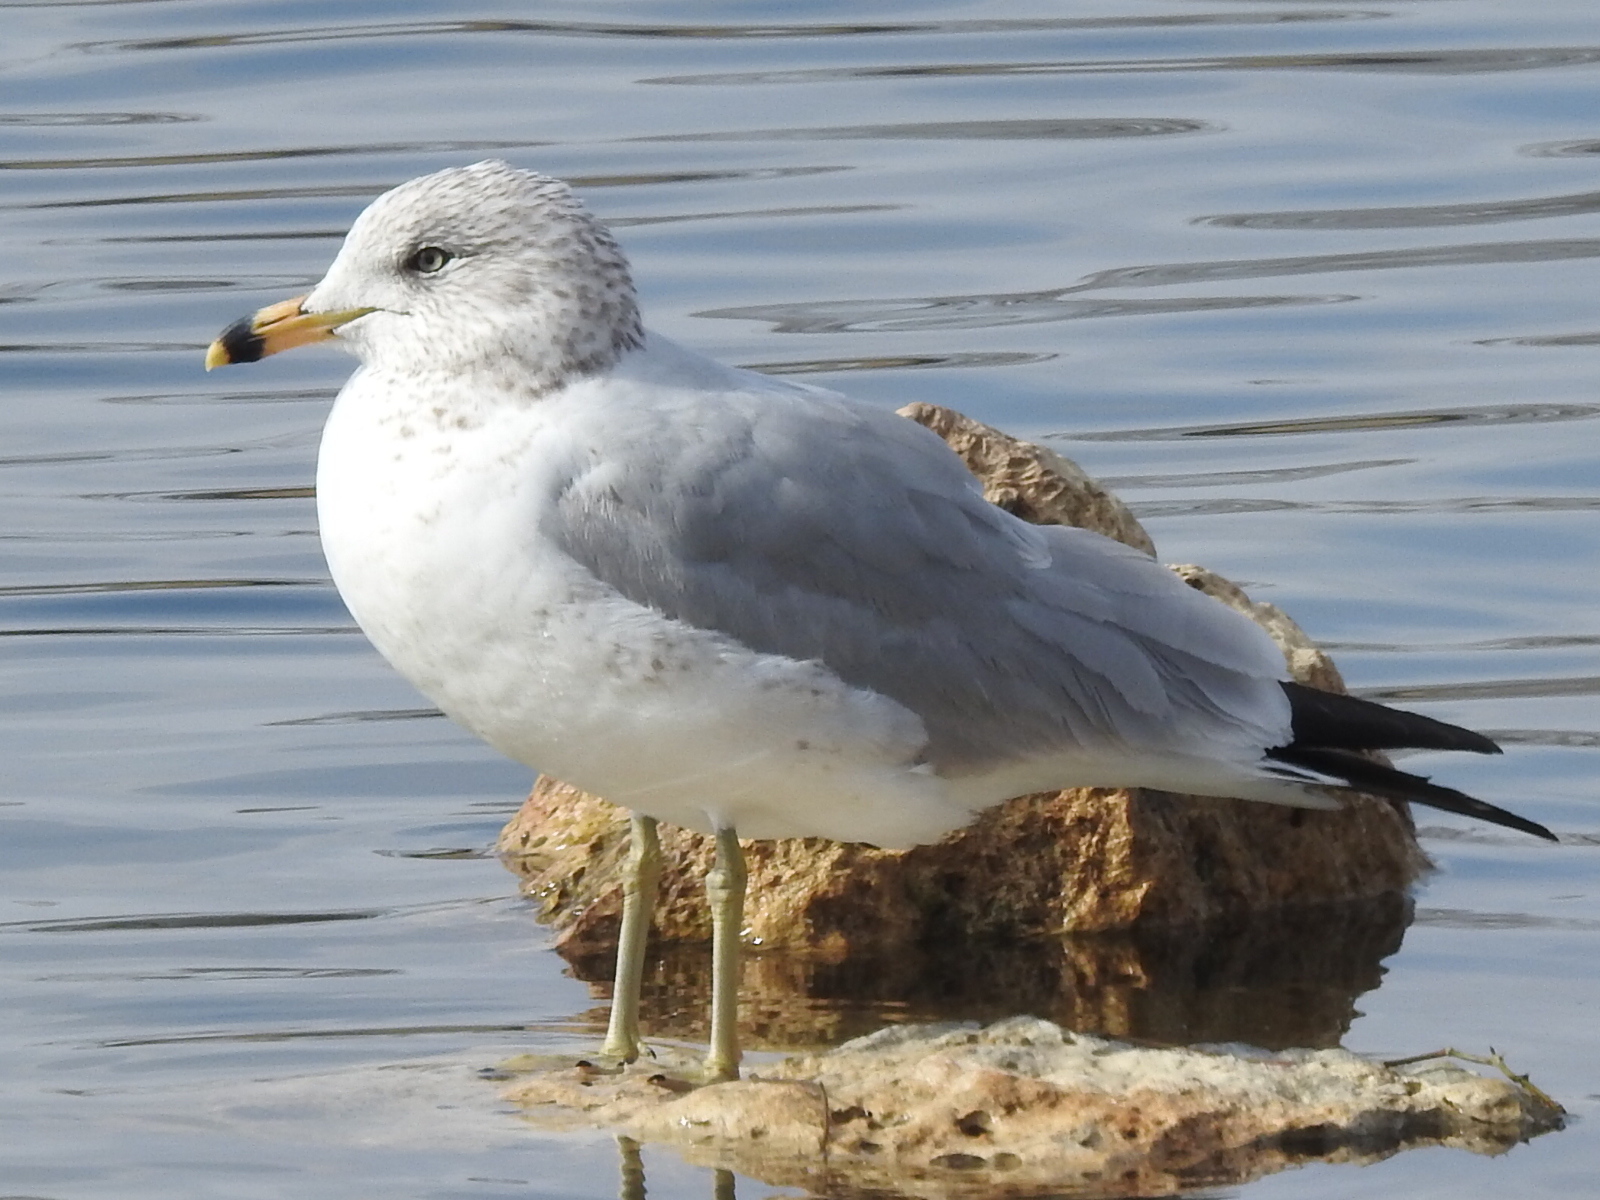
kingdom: Animalia
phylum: Chordata
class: Aves
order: Charadriiformes
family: Laridae
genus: Larus
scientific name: Larus delawarensis
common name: Ring-billed gull
